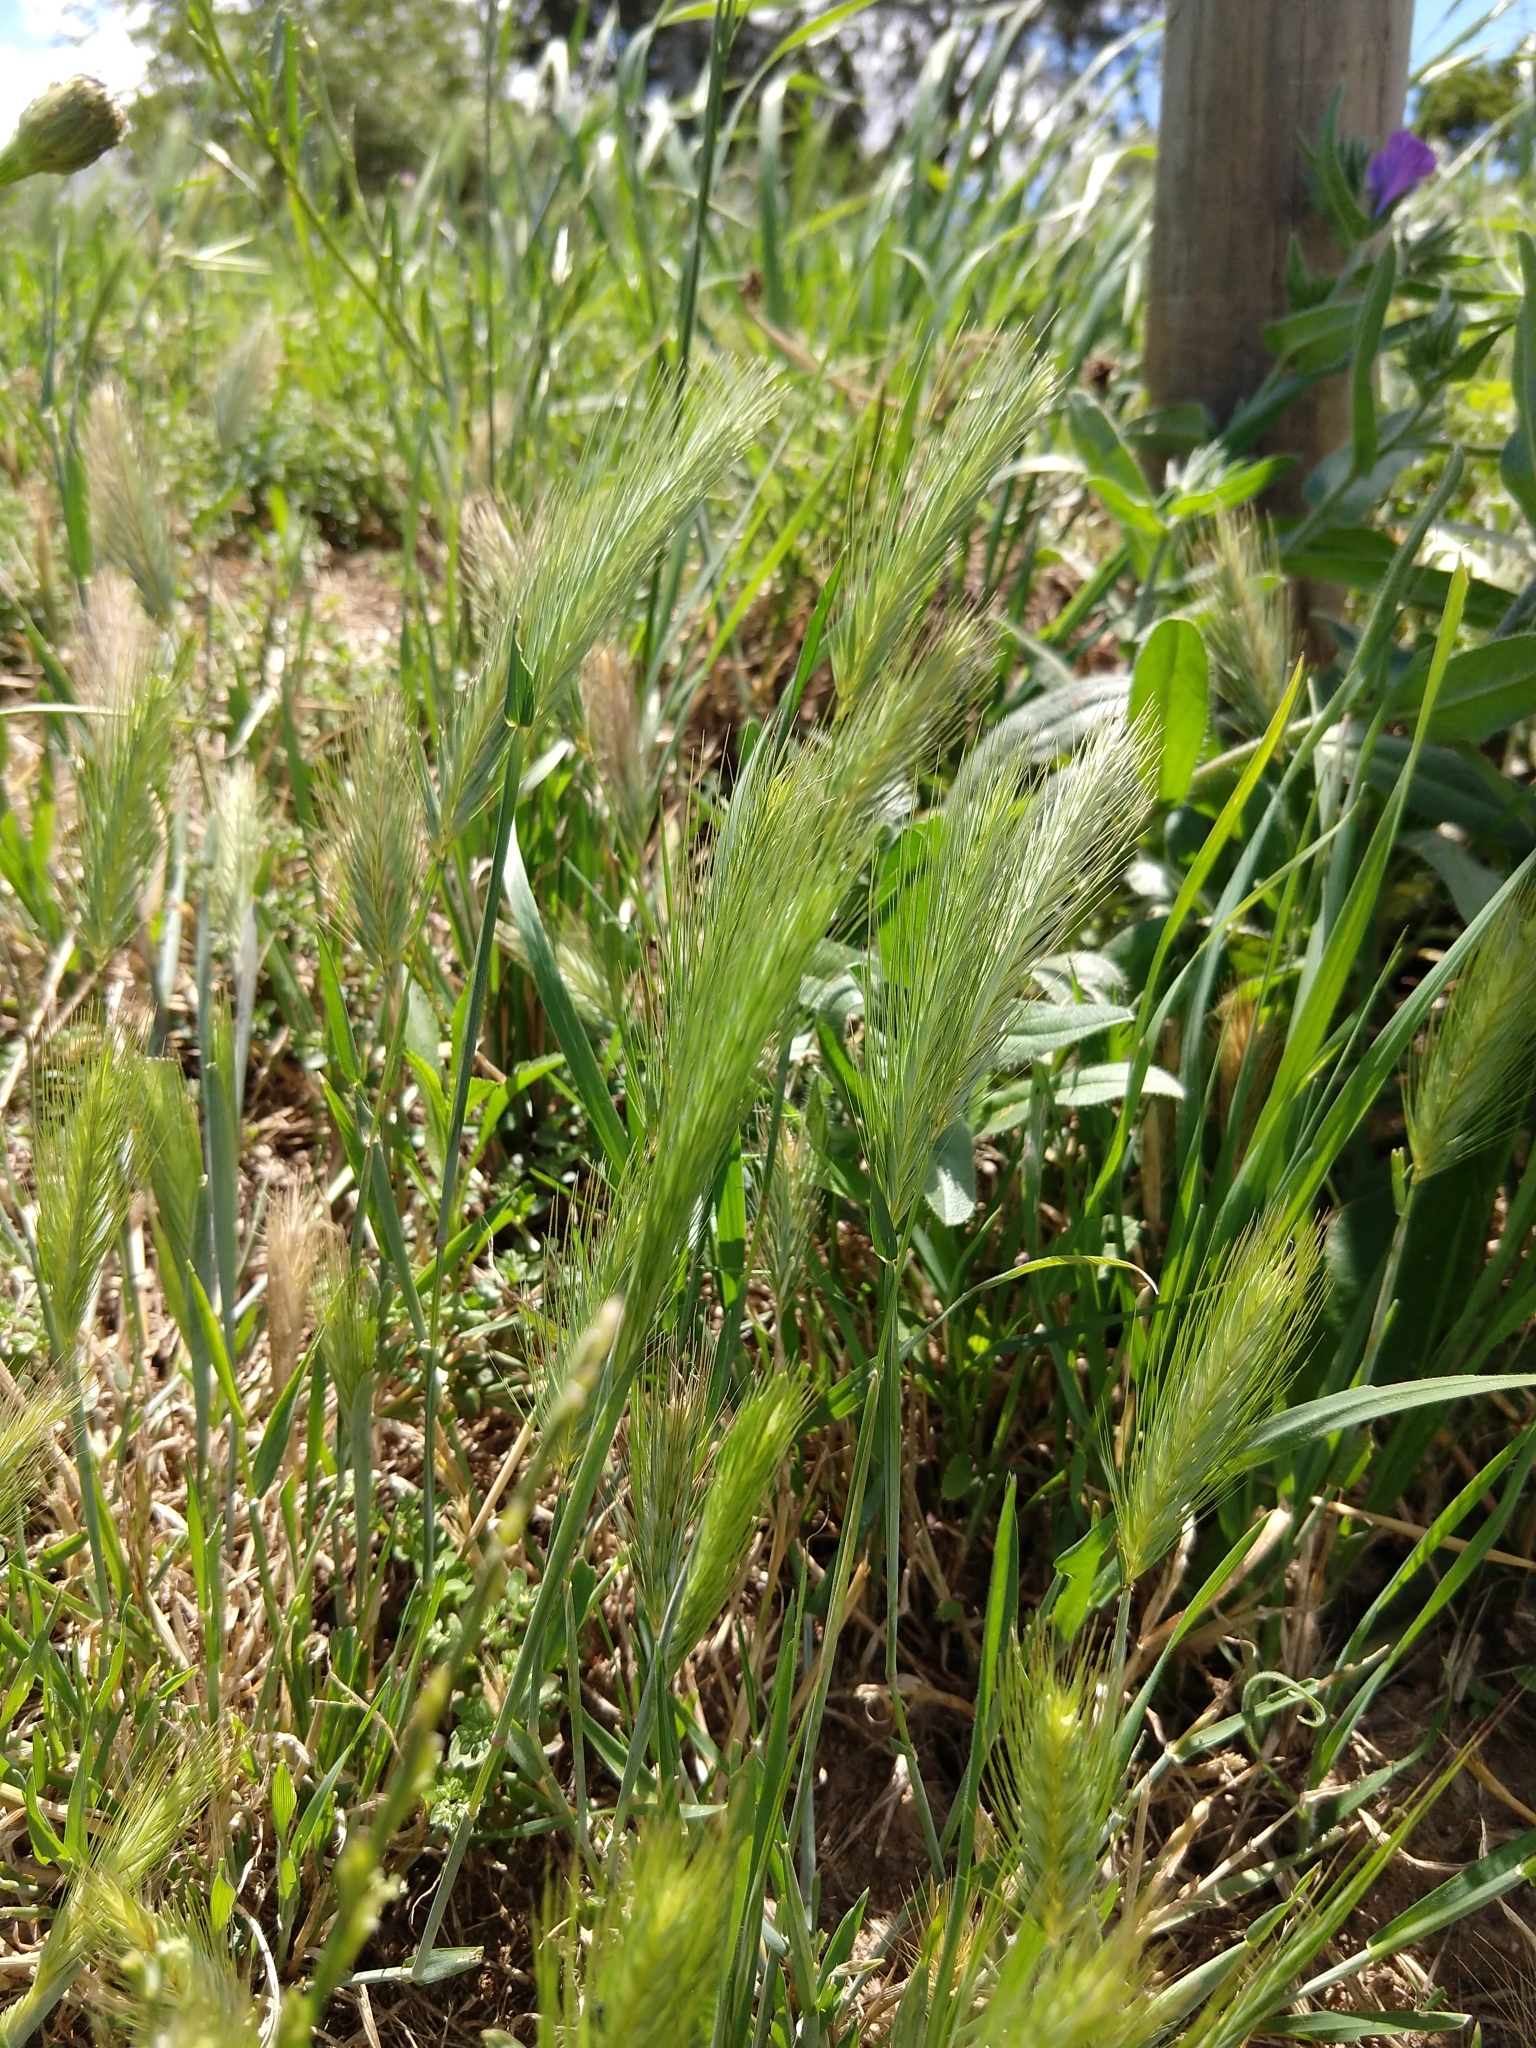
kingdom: Plantae
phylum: Tracheophyta
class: Liliopsida
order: Poales
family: Poaceae
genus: Hordeum
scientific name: Hordeum murinum
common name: Wall barley
